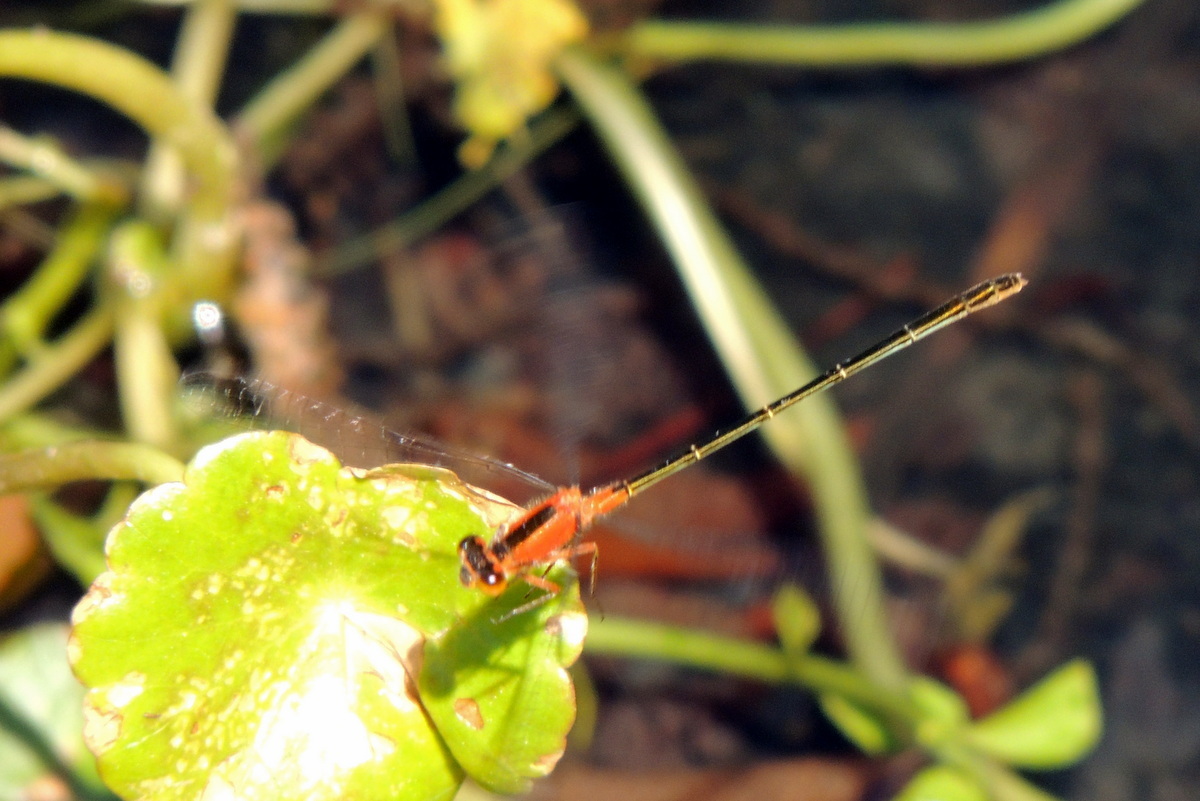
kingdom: Animalia
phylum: Arthropoda
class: Insecta
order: Odonata
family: Coenagrionidae
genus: Ischnura
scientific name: Ischnura ramburii
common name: Rambur's forktail
